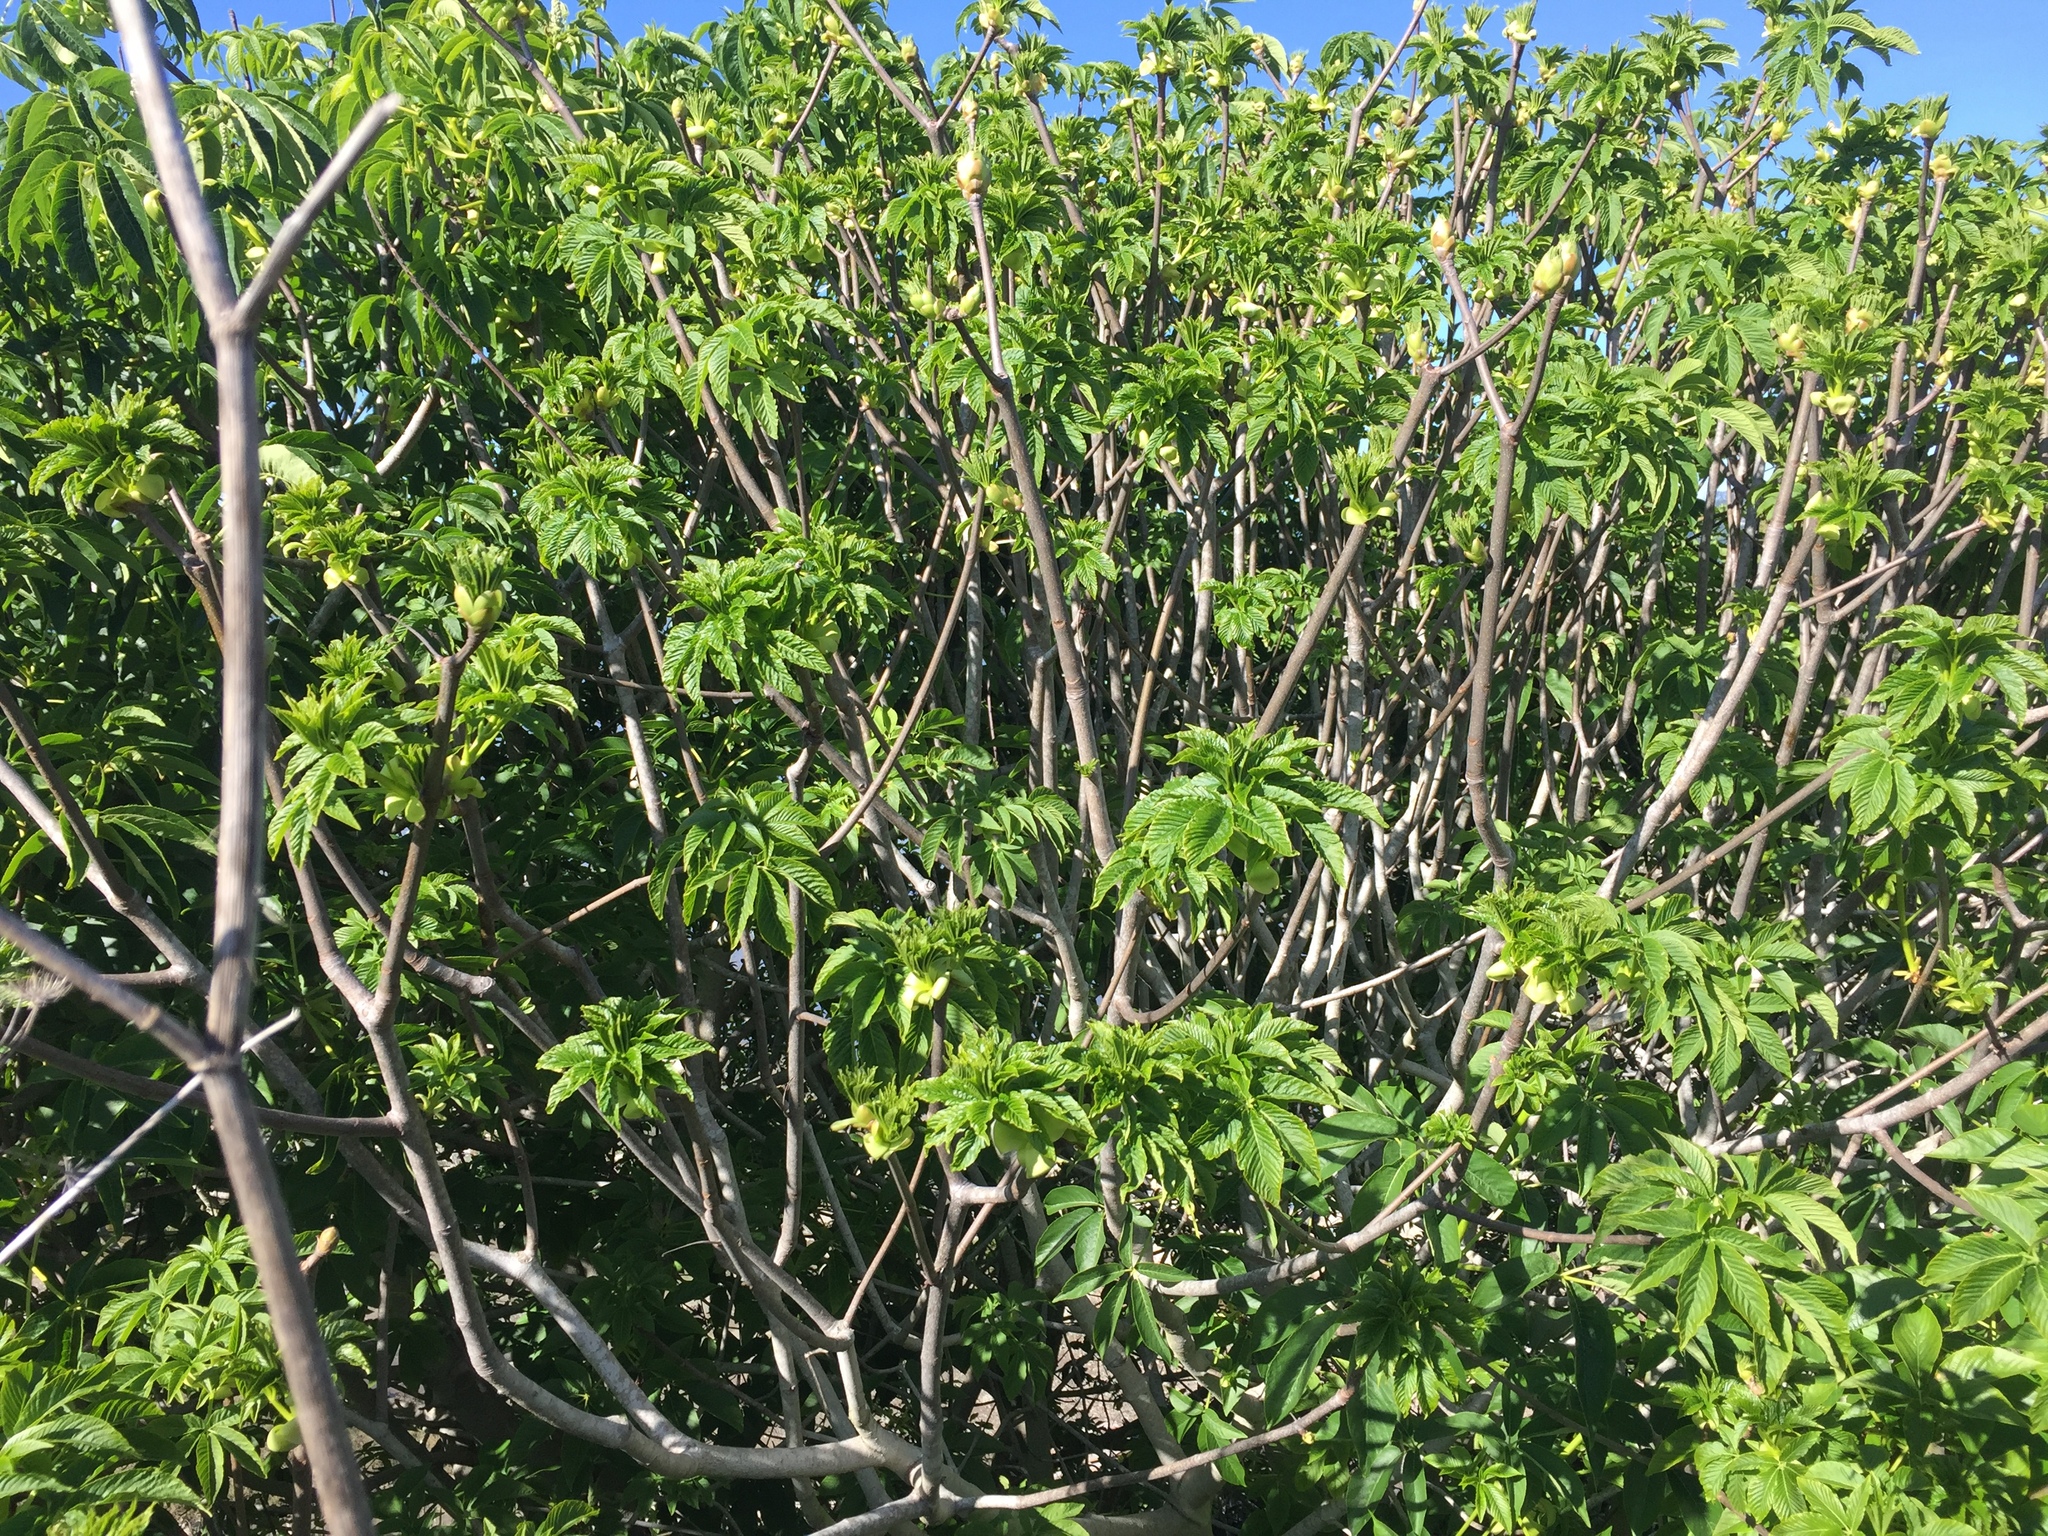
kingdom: Plantae
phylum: Tracheophyta
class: Magnoliopsida
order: Sapindales
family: Sapindaceae
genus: Aesculus
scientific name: Aesculus californica
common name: California buckeye
